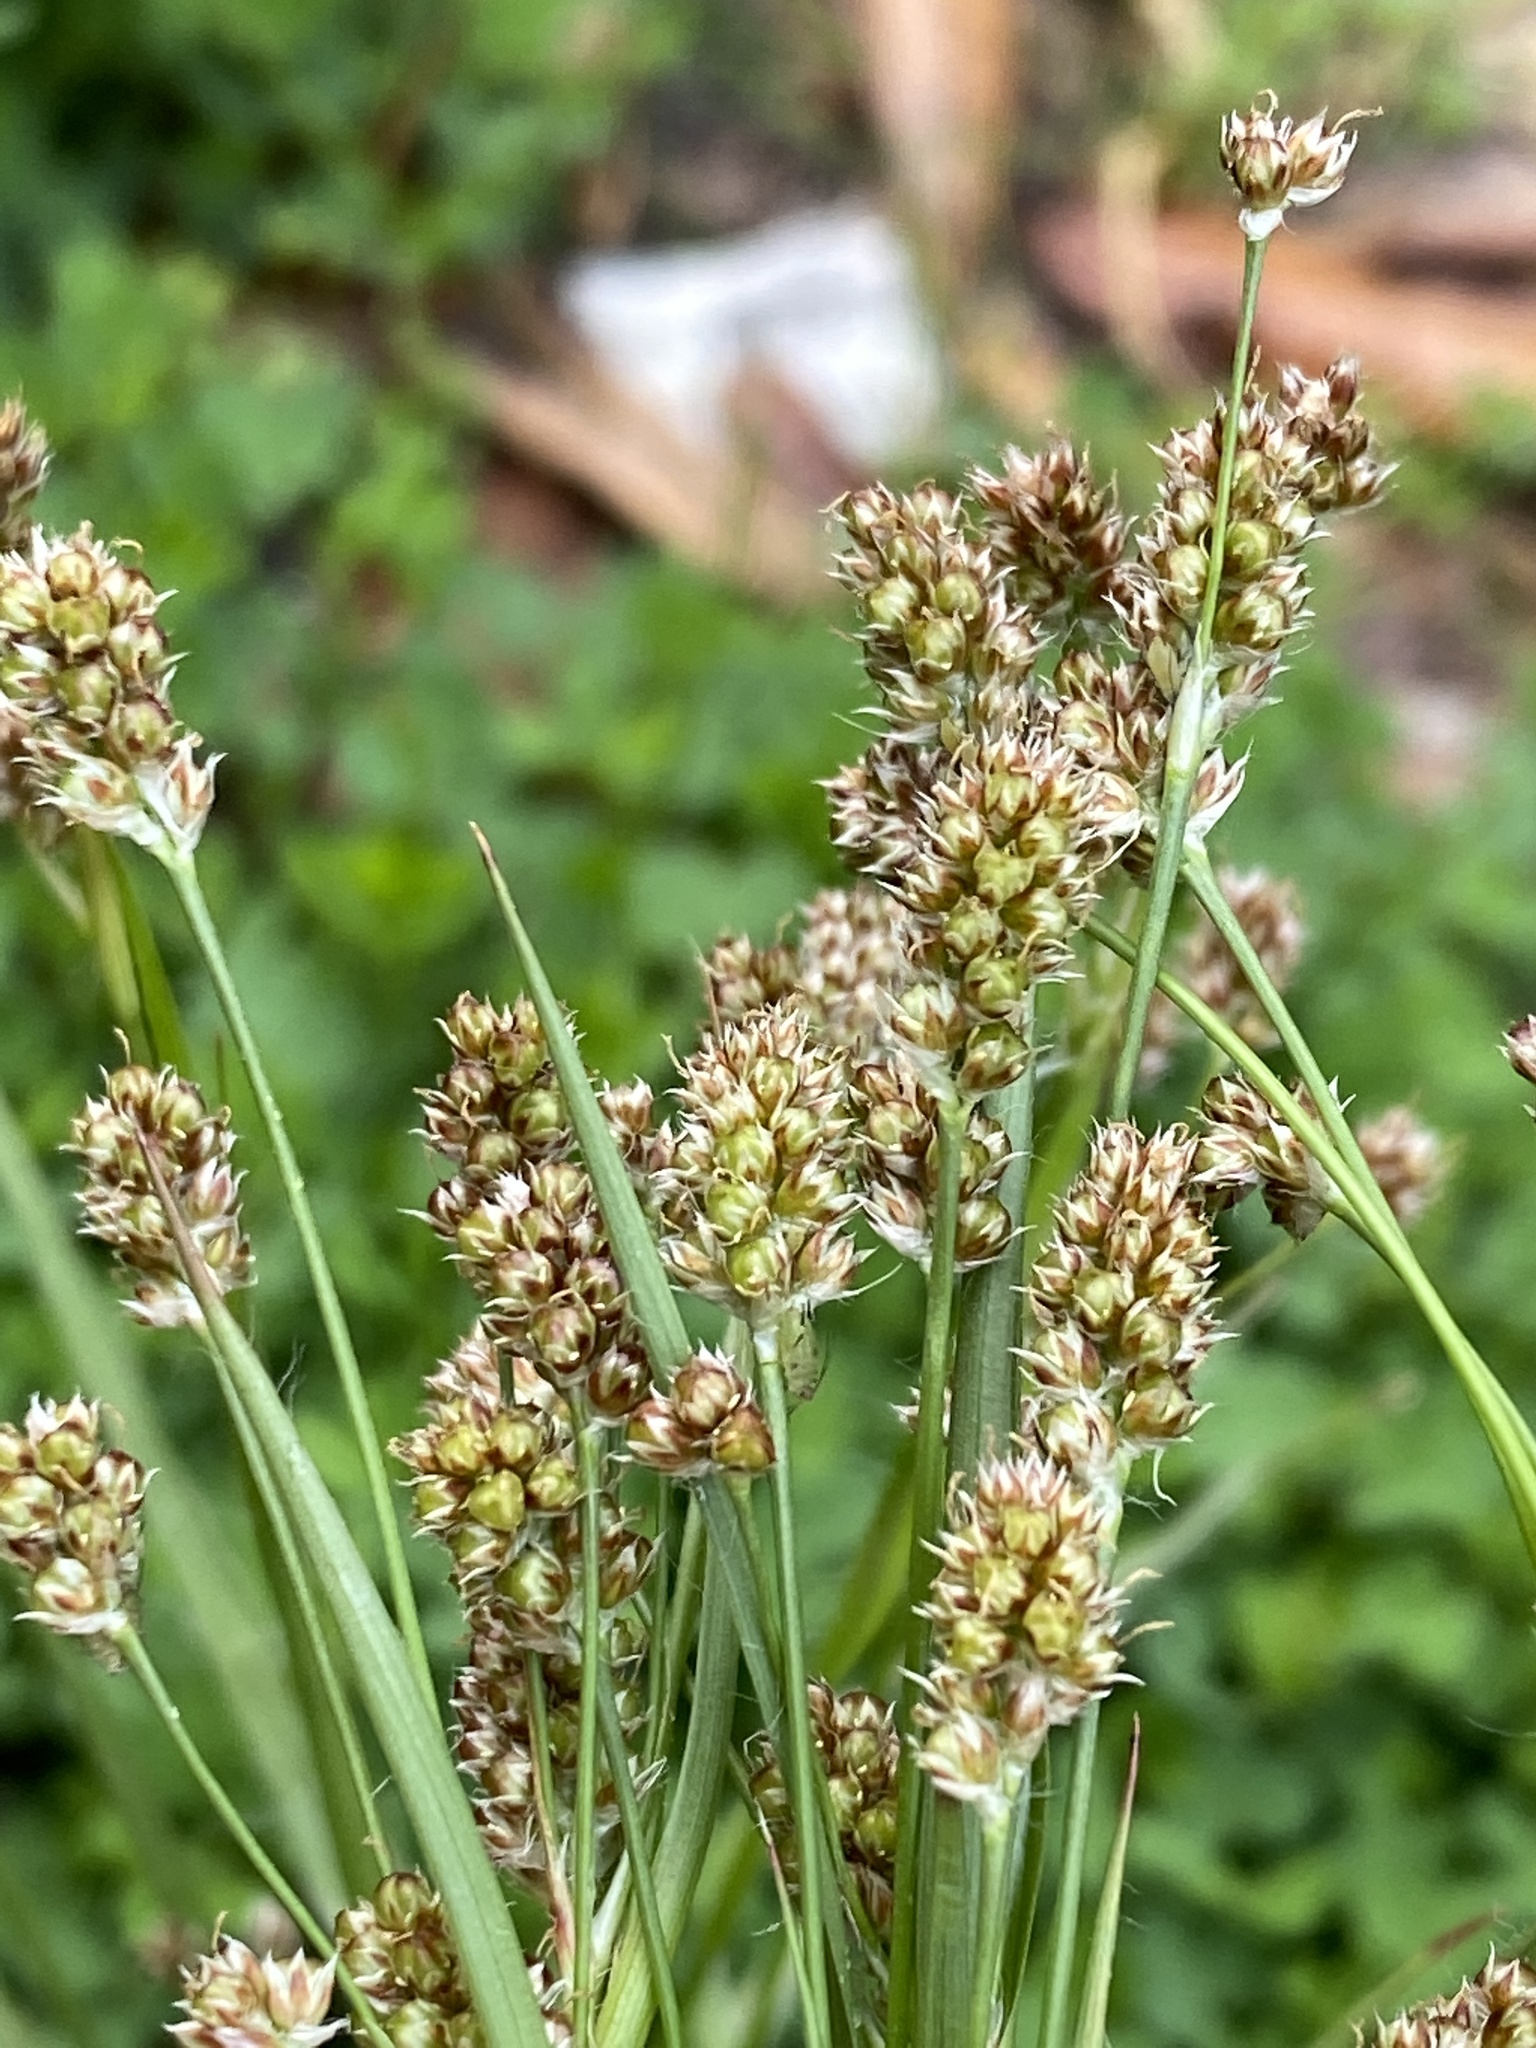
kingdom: Plantae
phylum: Tracheophyta
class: Liliopsida
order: Poales
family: Juncaceae
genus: Luzula
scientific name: Luzula bulbosa
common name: Bulbous woodrush
